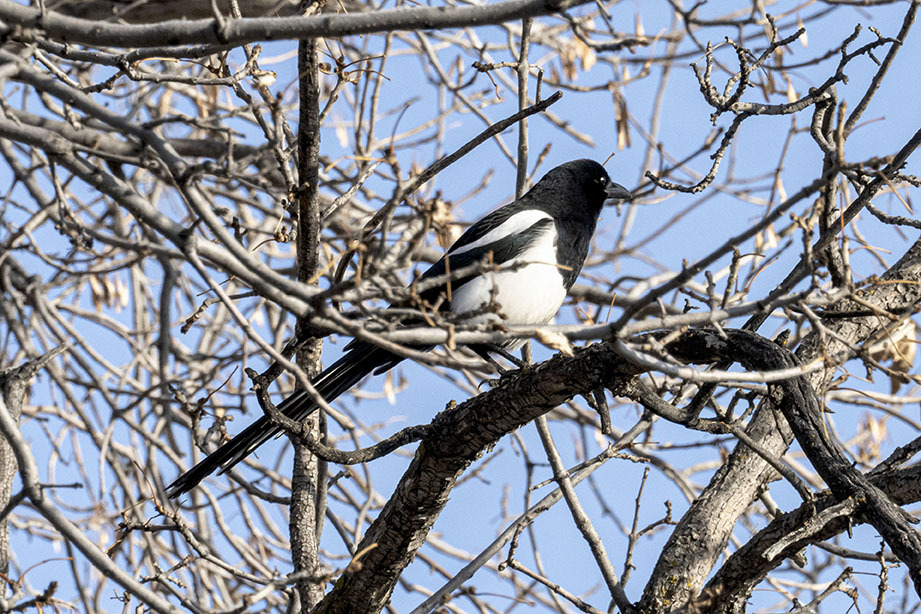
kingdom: Animalia
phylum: Chordata
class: Aves
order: Passeriformes
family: Corvidae
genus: Pica
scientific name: Pica hudsonia
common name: Black-billed magpie
